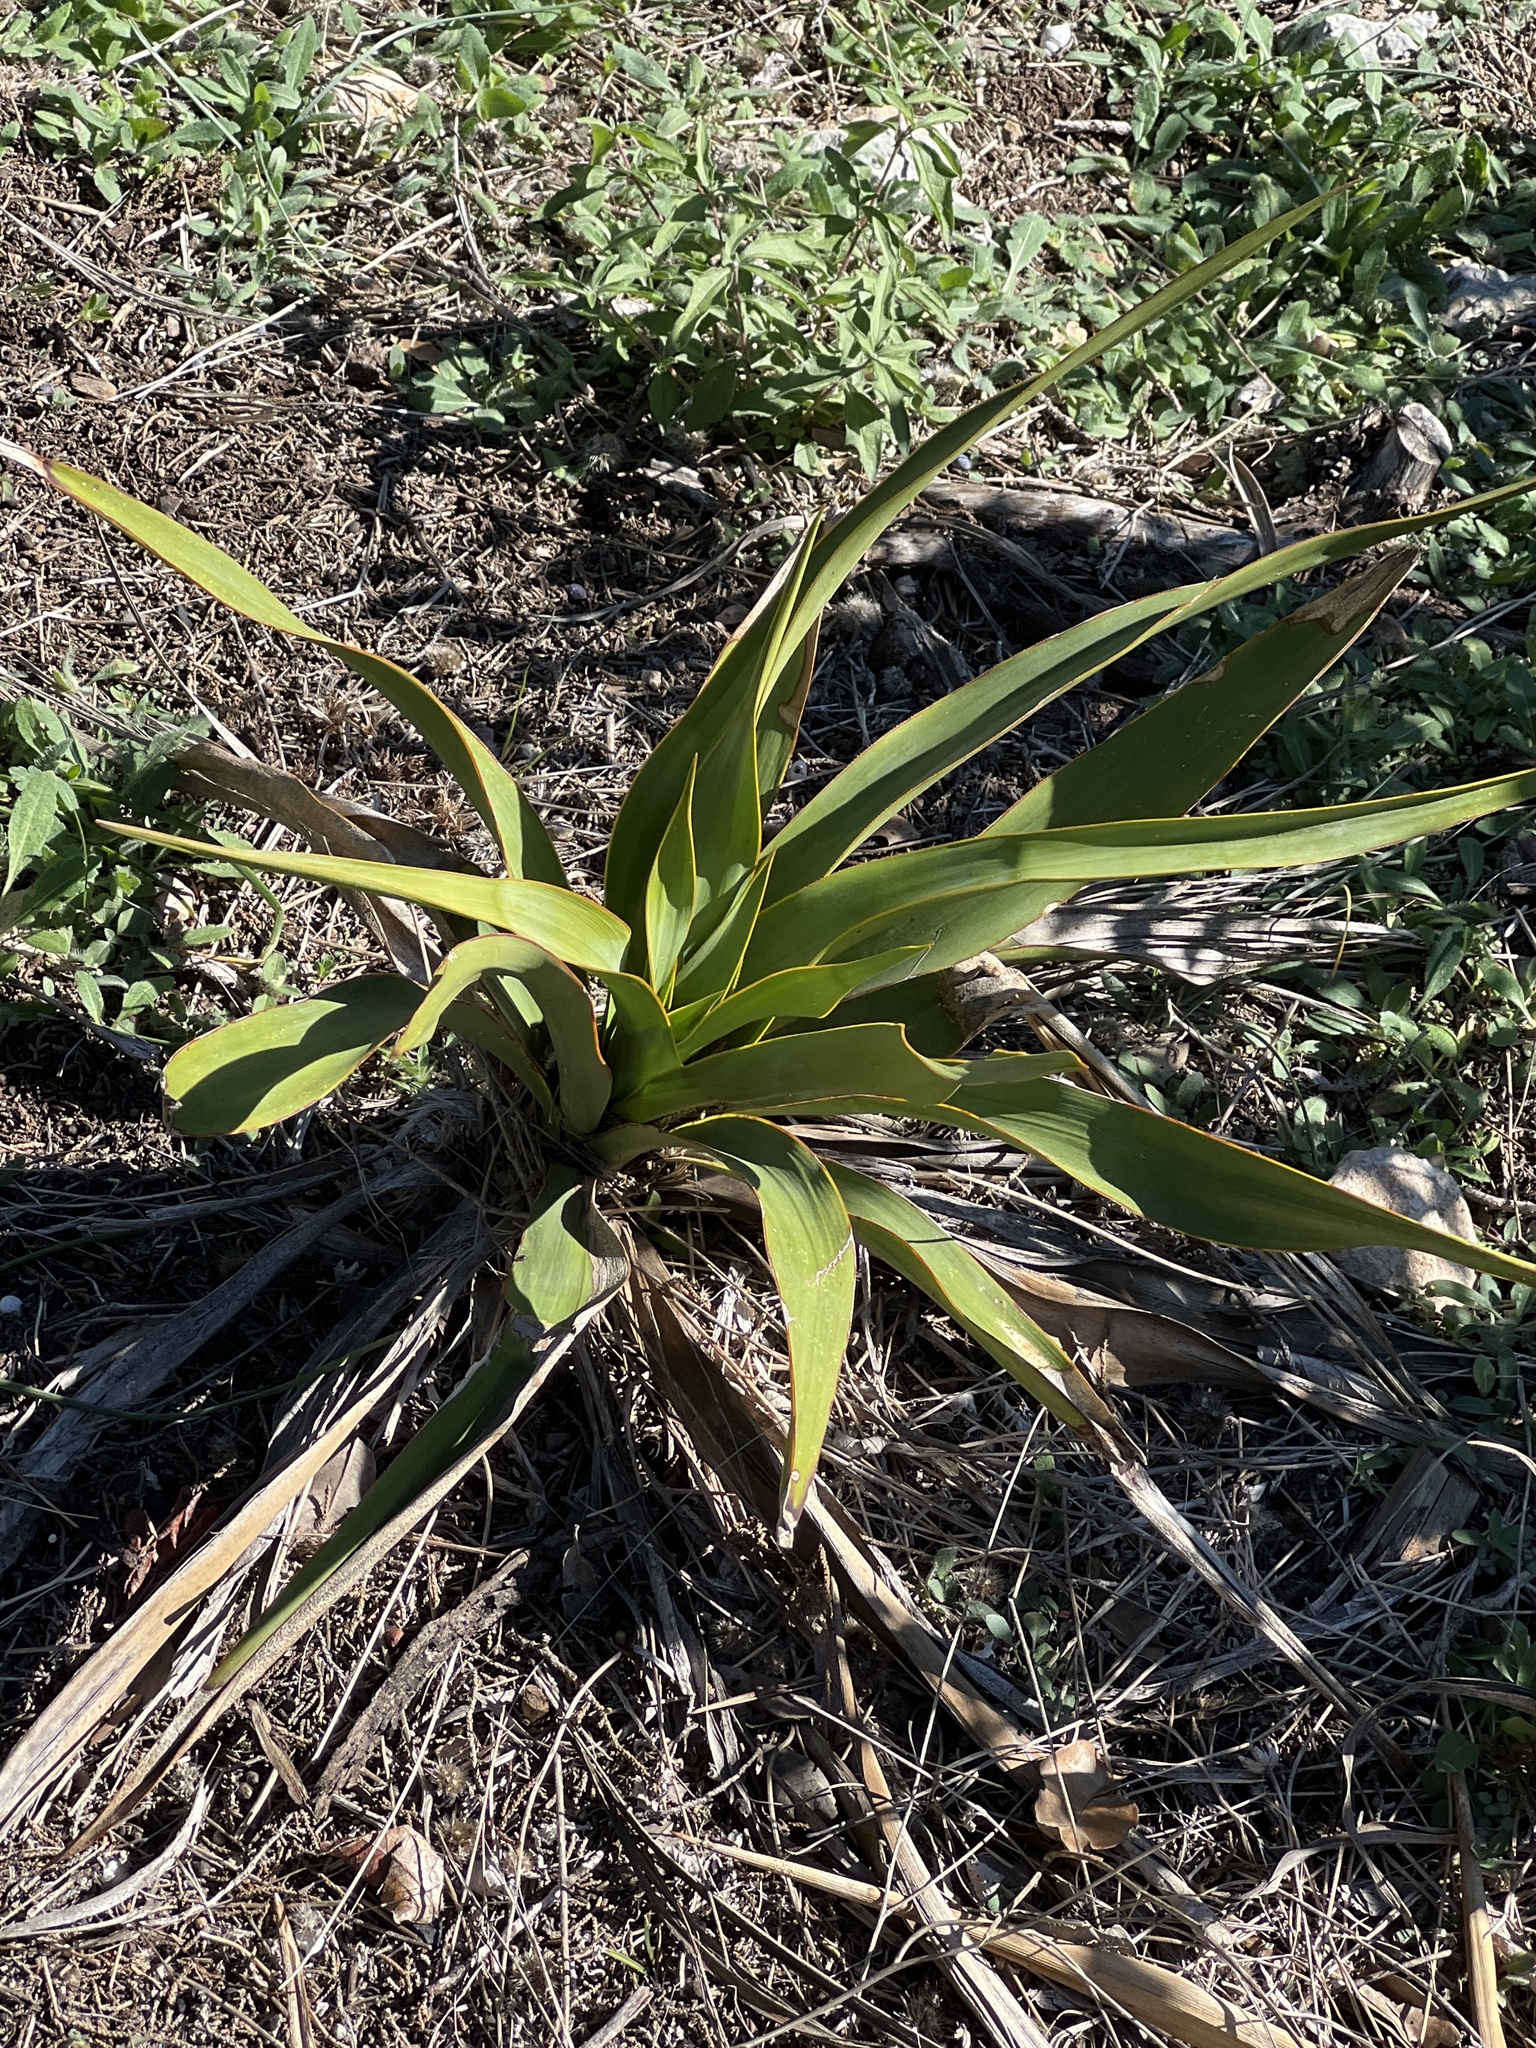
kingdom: Plantae
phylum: Tracheophyta
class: Liliopsida
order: Asparagales
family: Asparagaceae
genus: Yucca
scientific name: Yucca rupicola
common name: Twisted-leaf spanish-dagger
